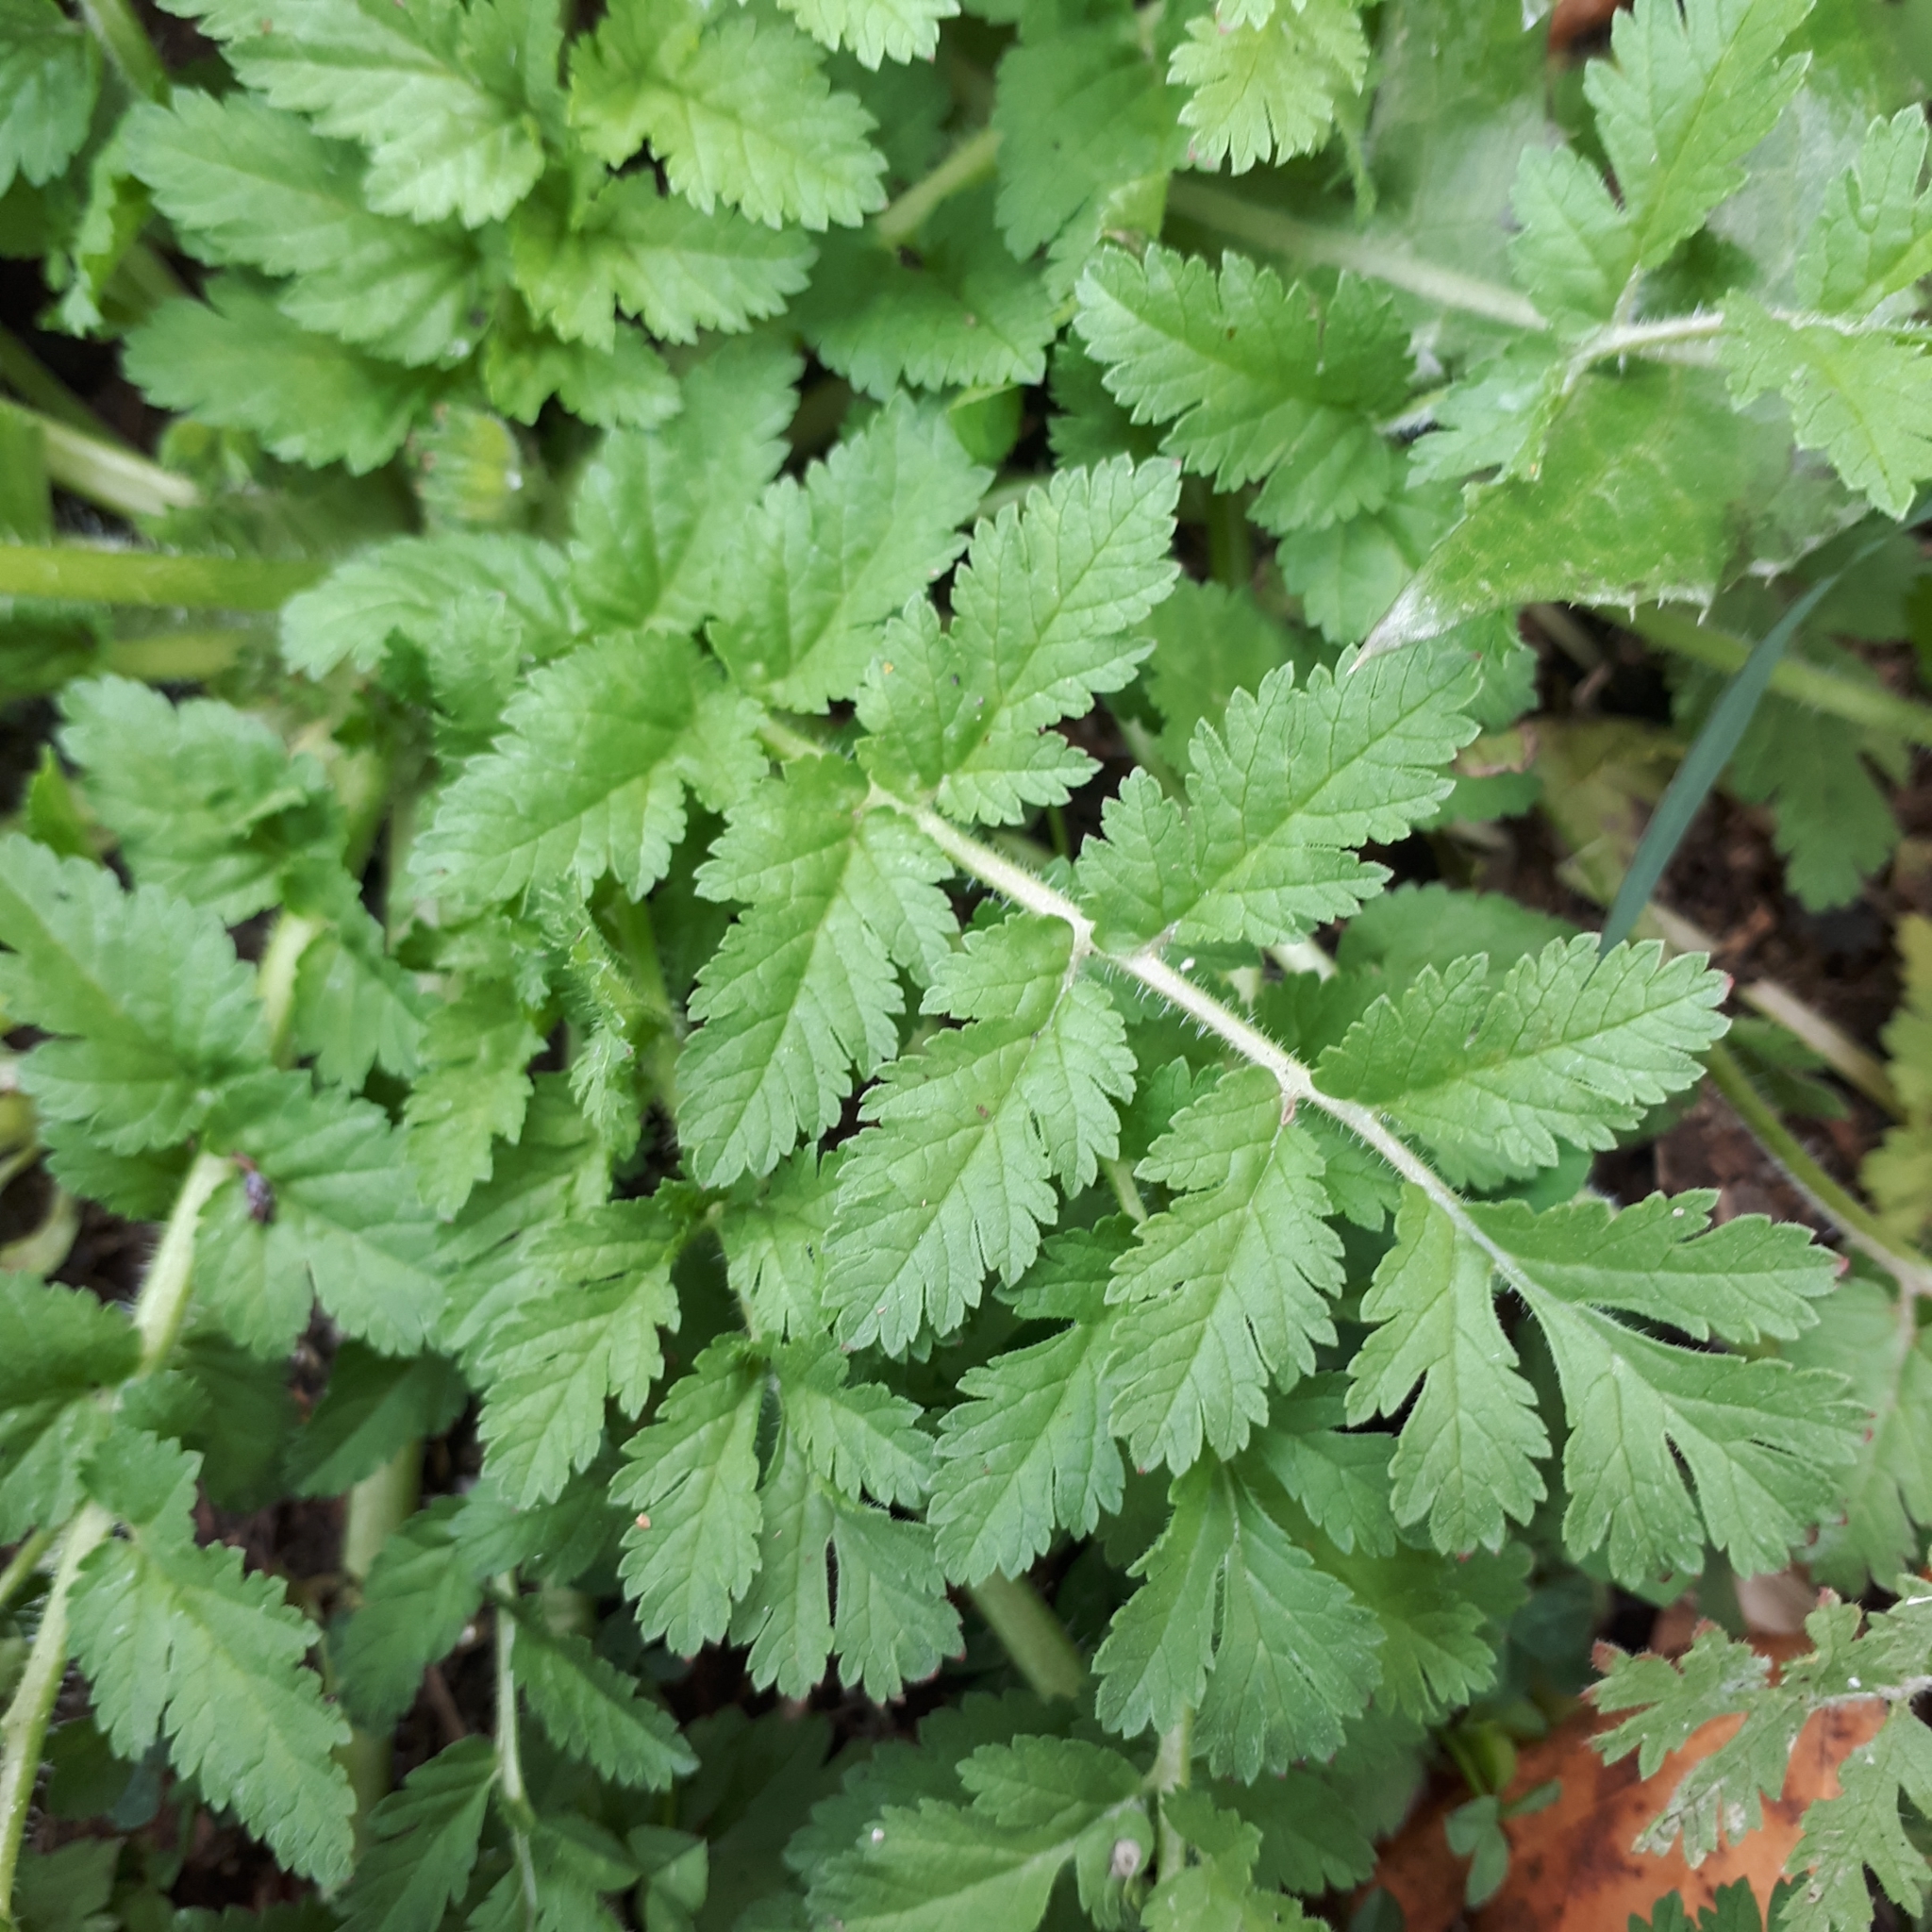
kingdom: Plantae
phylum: Tracheophyta
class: Magnoliopsida
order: Geraniales
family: Geraniaceae
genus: Erodium
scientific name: Erodium moschatum
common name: Musk stork's-bill
